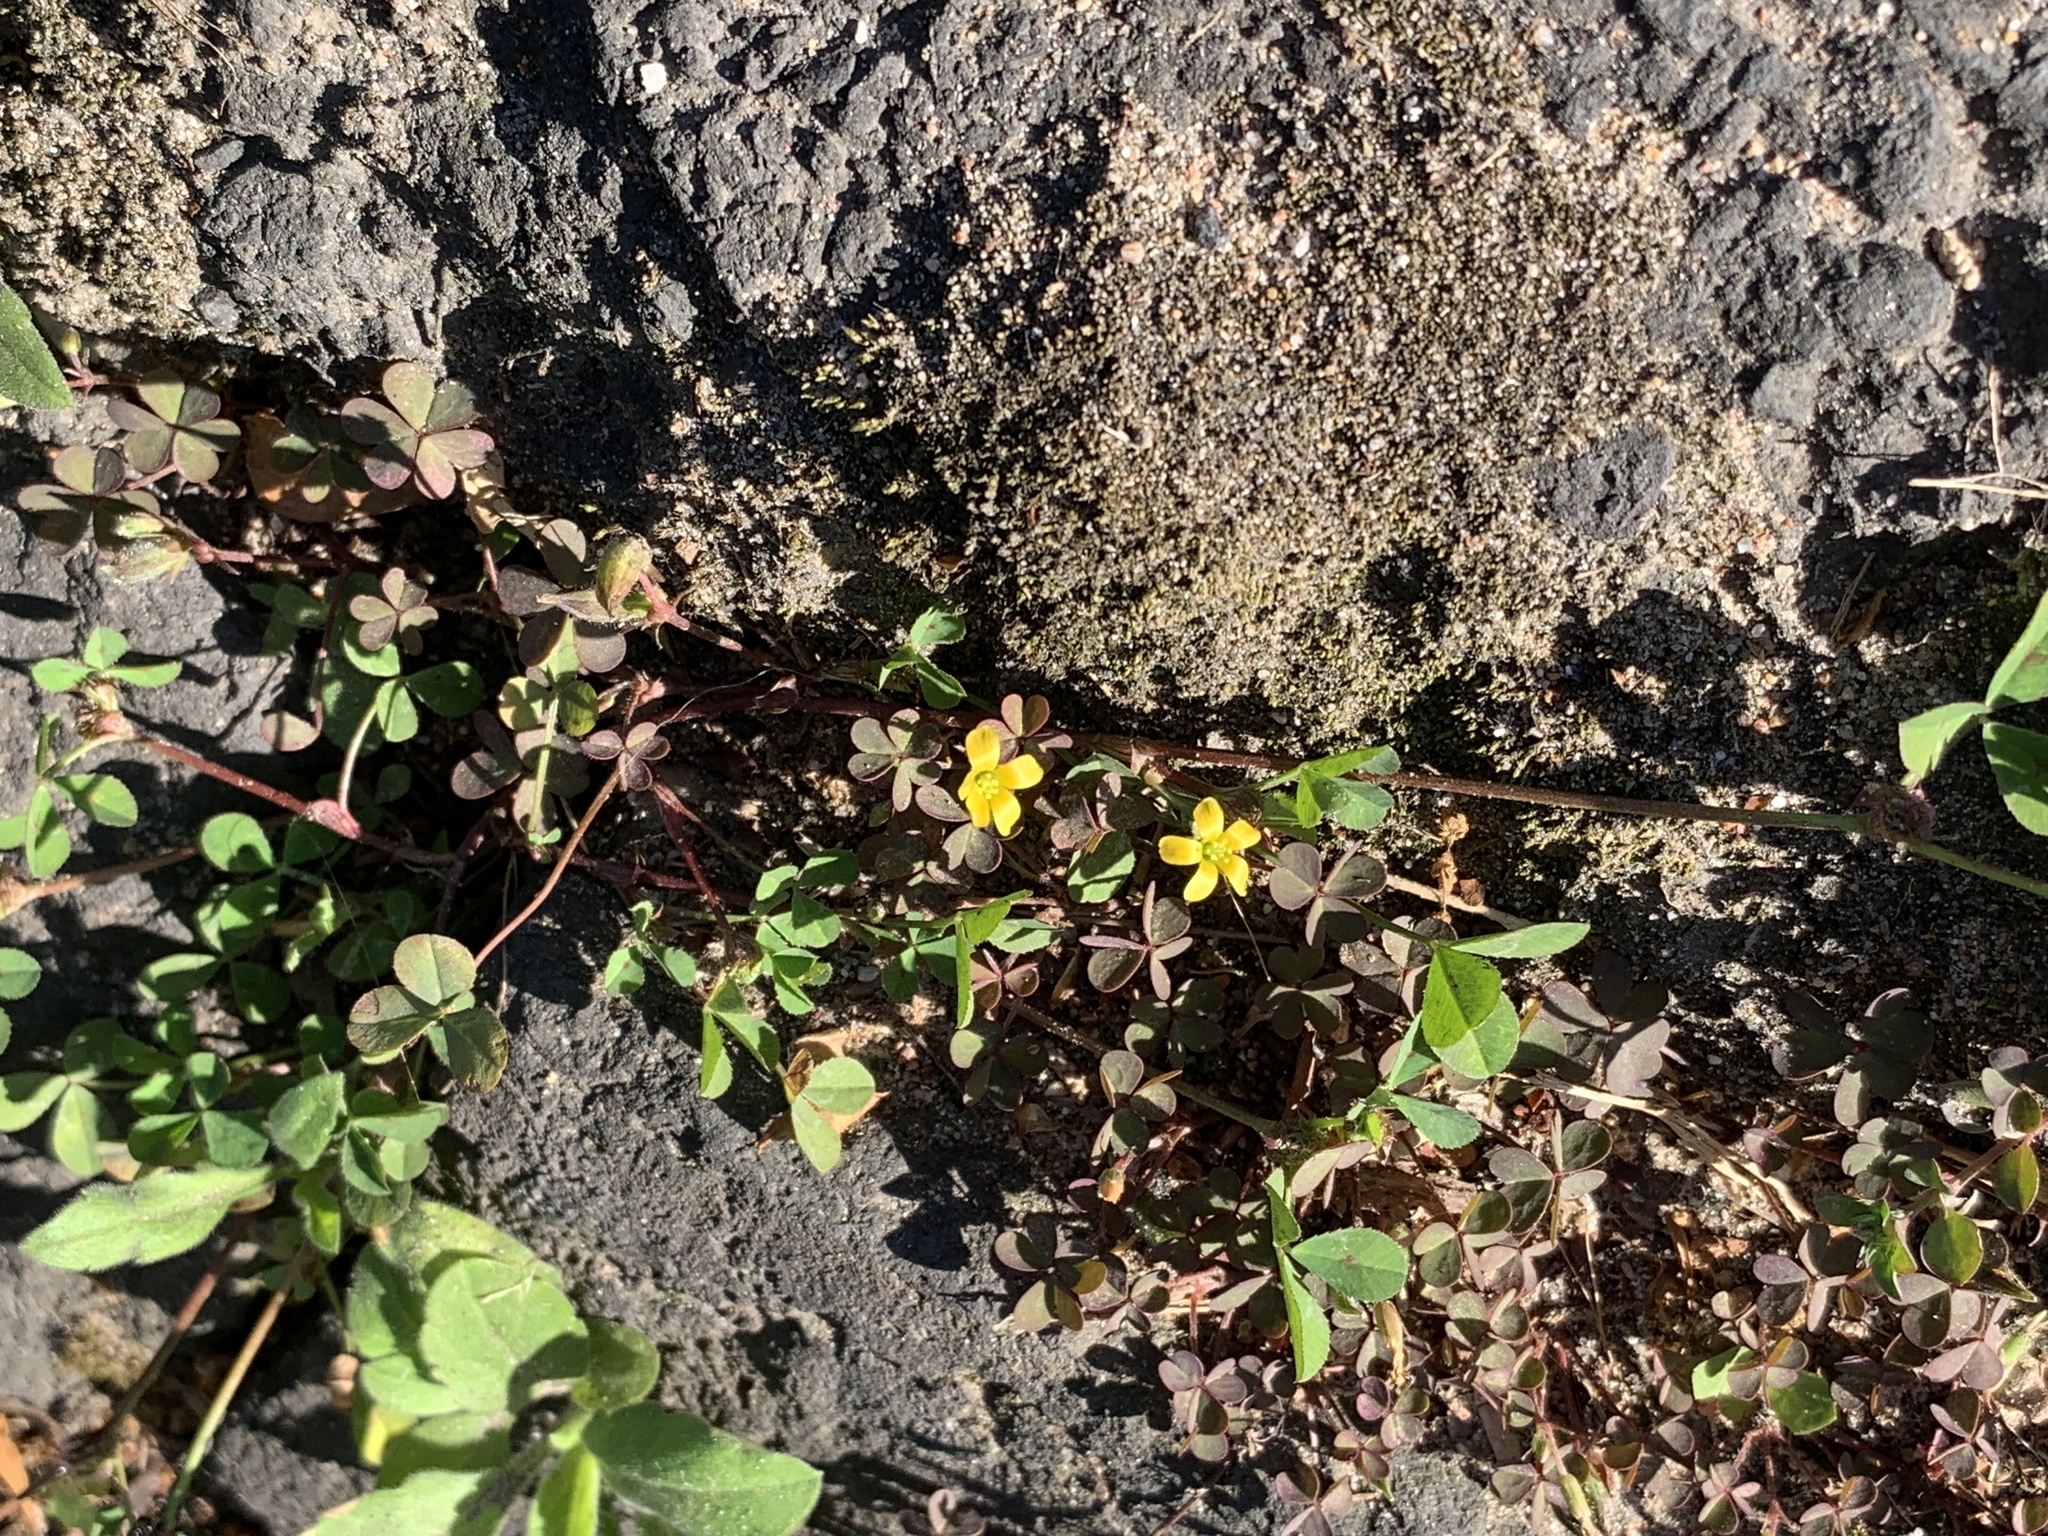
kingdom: Plantae
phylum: Tracheophyta
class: Magnoliopsida
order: Oxalidales
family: Oxalidaceae
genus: Oxalis
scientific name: Oxalis corniculata
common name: Procumbent yellow-sorrel
